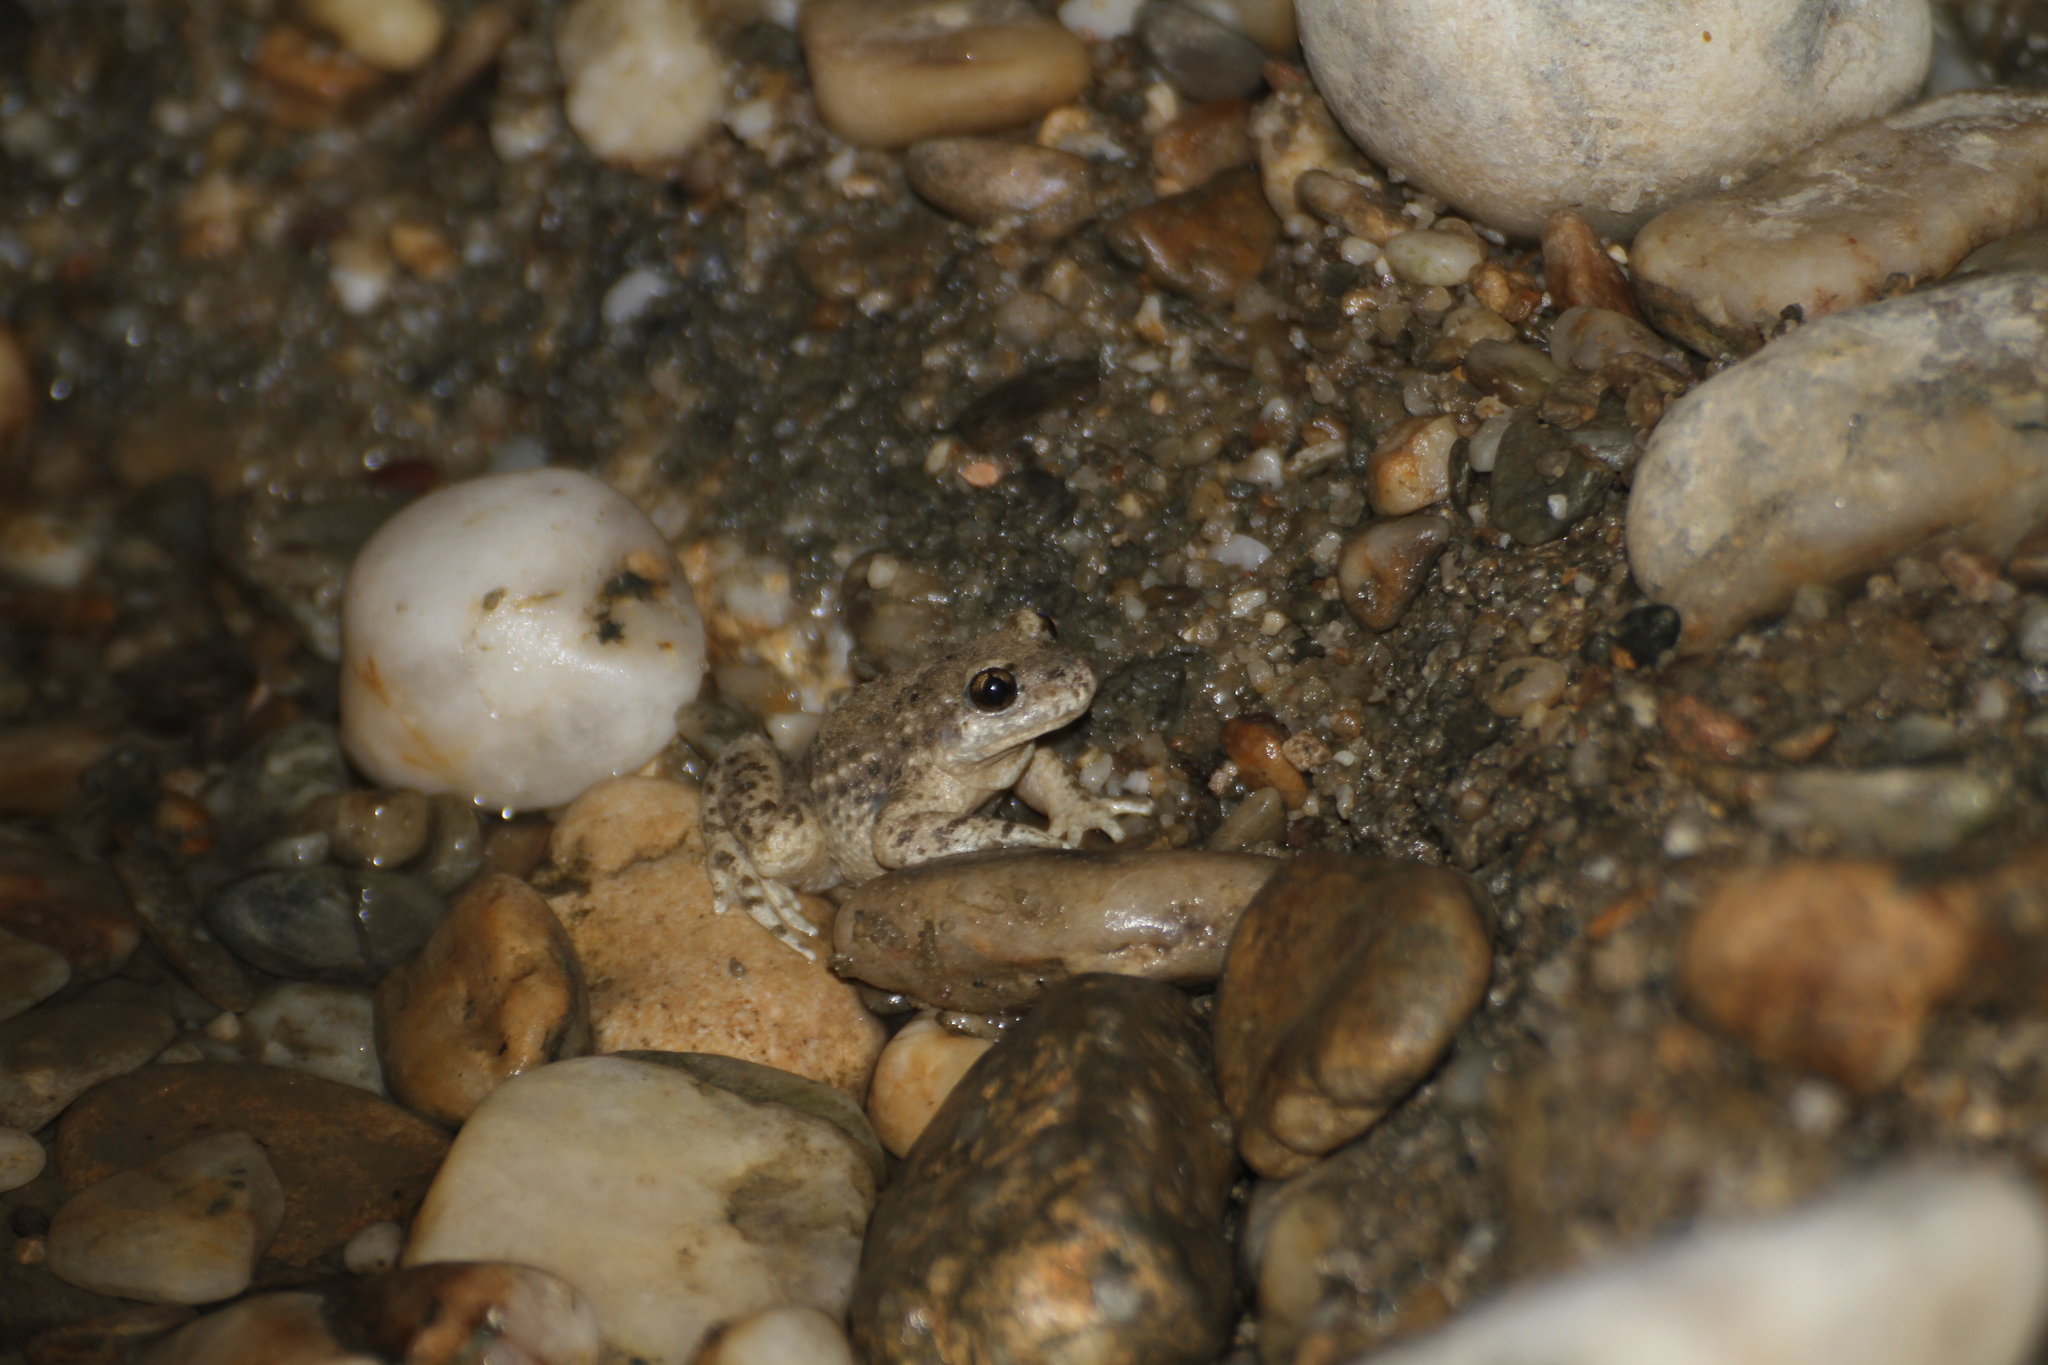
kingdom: Animalia
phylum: Chordata
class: Amphibia
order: Anura
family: Alytidae
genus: Alytes
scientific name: Alytes obstetricans
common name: Midwife toad
